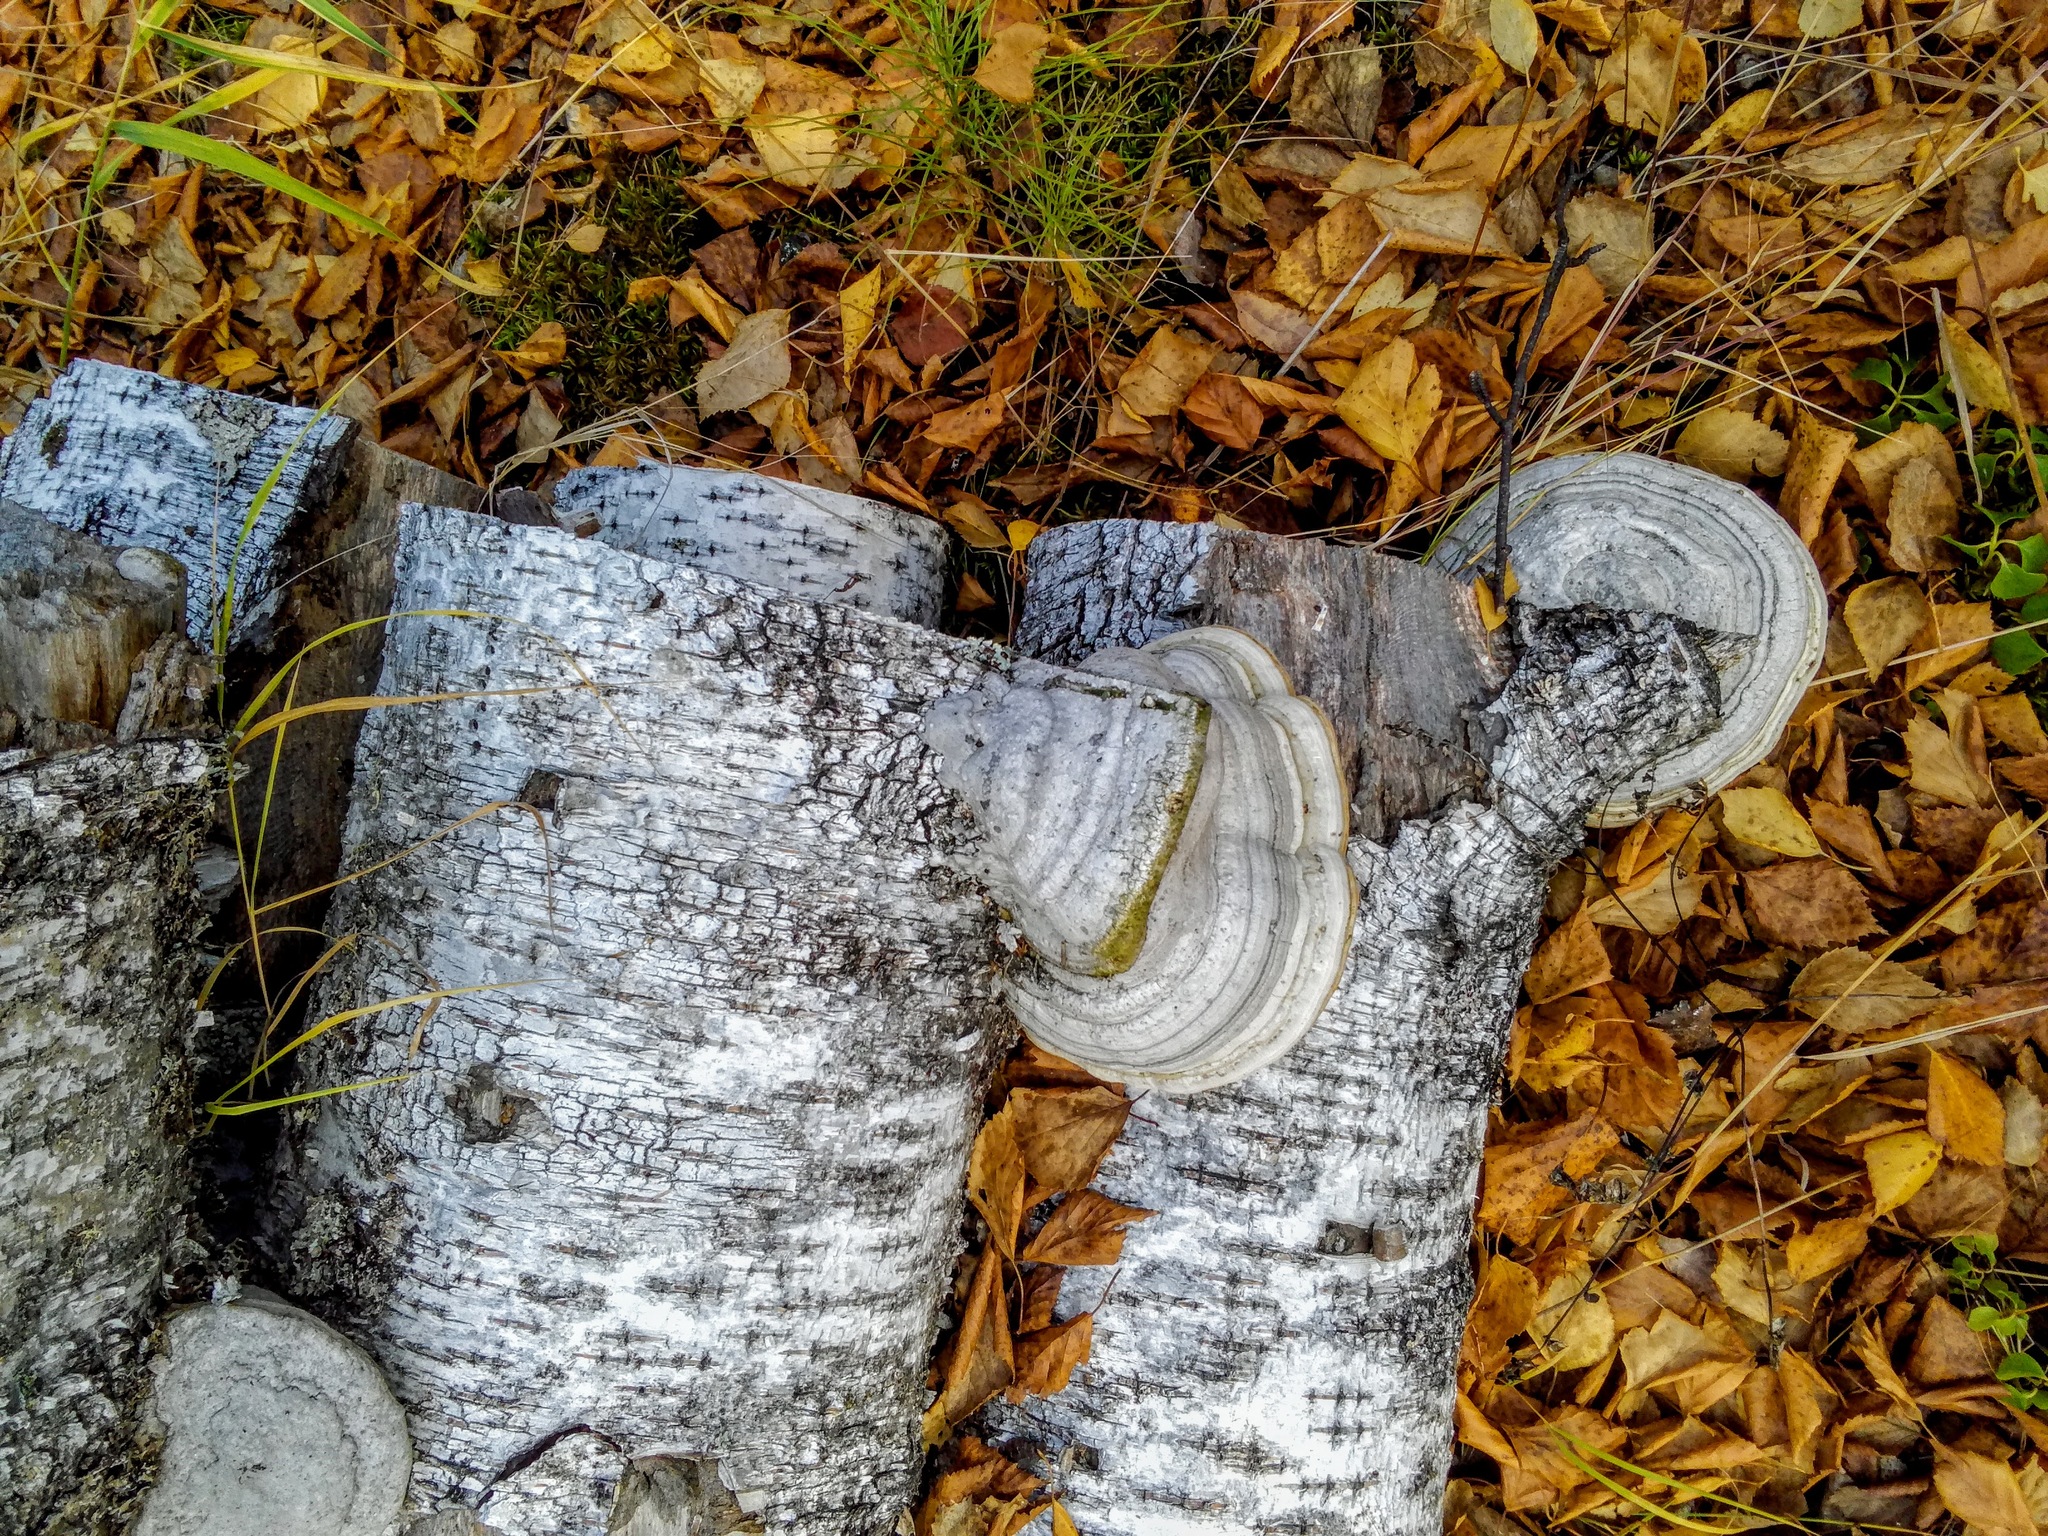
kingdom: Fungi
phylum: Basidiomycota
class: Agaricomycetes
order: Polyporales
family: Polyporaceae
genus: Fomes
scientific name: Fomes fomentarius
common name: Hoof fungus
